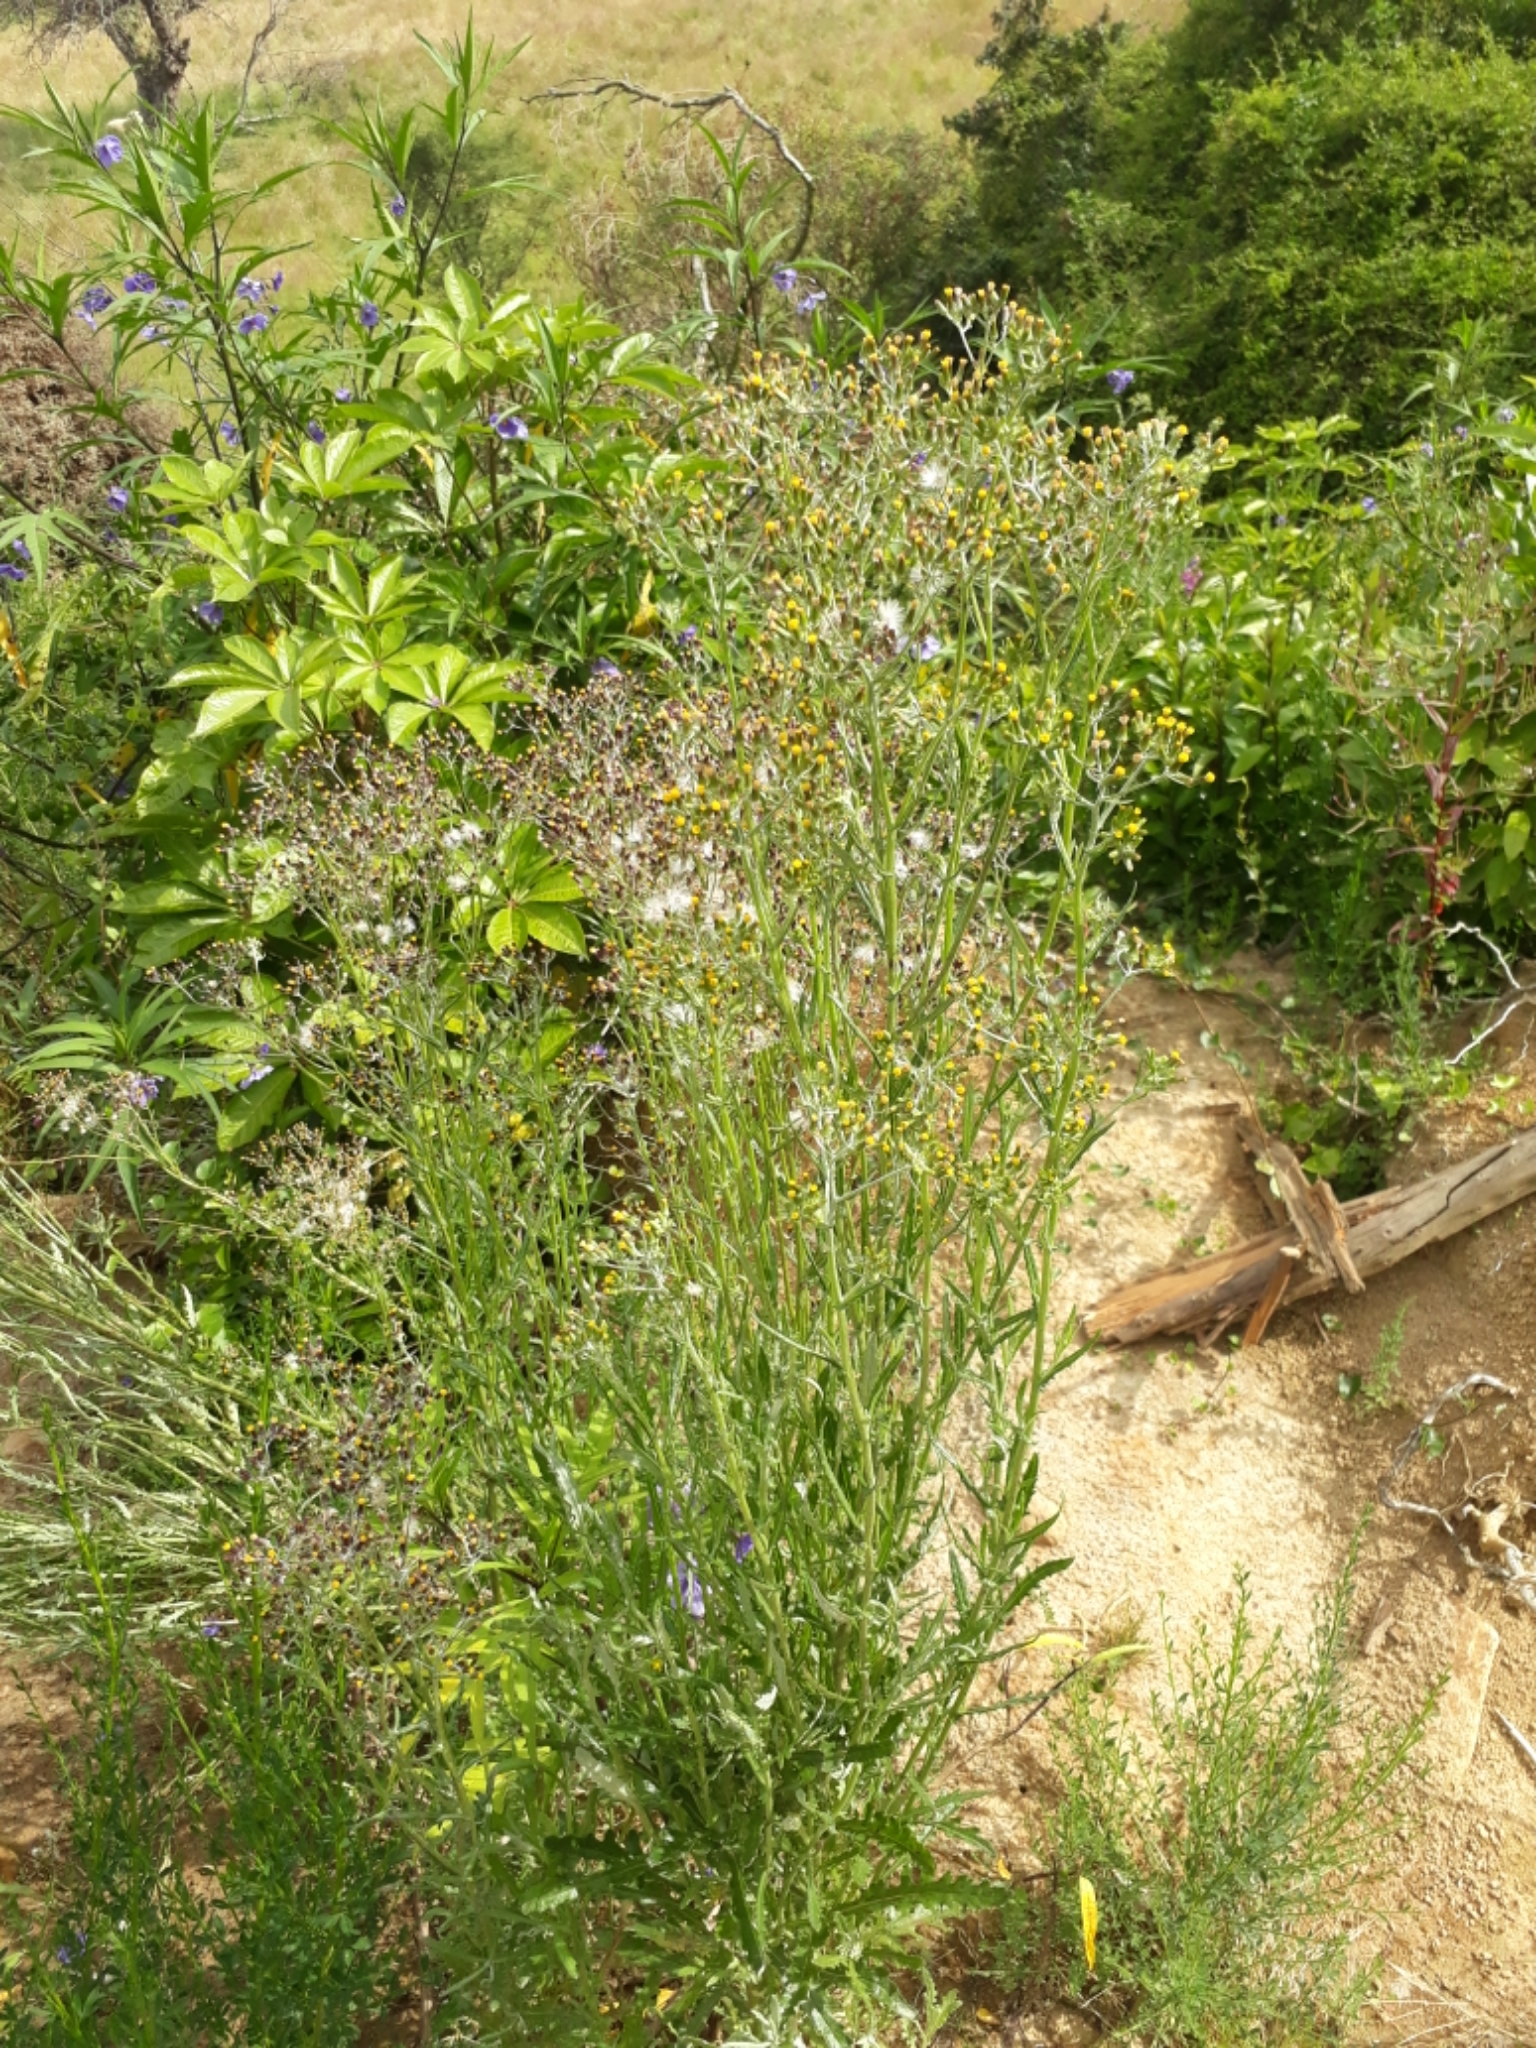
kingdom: Plantae
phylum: Tracheophyta
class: Magnoliopsida
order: Asterales
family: Asteraceae
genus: Senecio
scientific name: Senecio glomeratus
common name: Cutleaf burnweed
